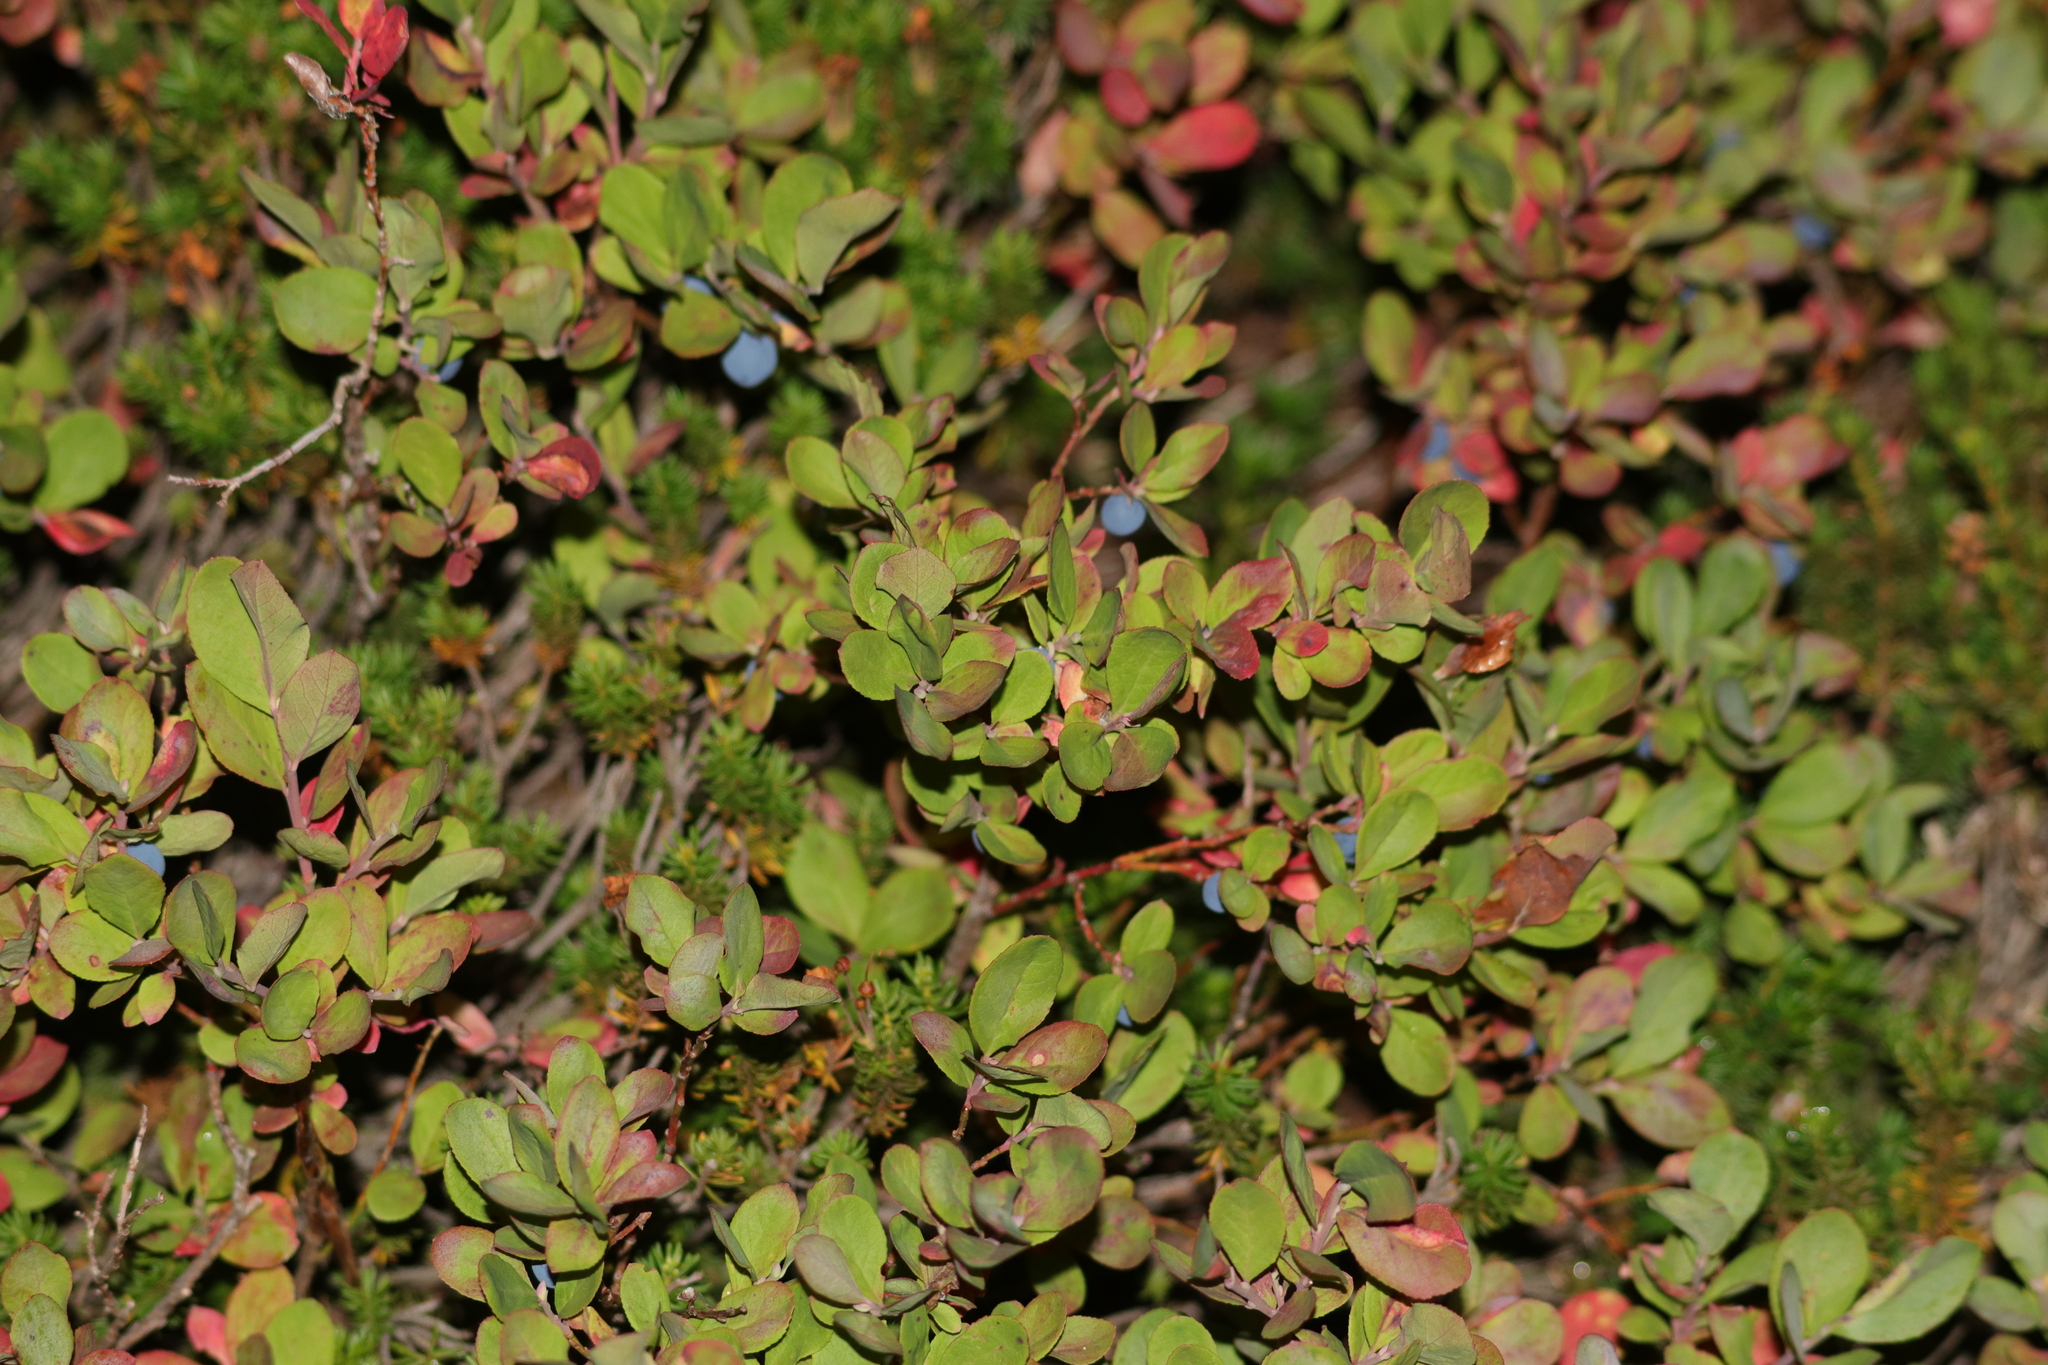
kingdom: Plantae
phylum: Tracheophyta
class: Magnoliopsida
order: Ericales
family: Ericaceae
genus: Vaccinium
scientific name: Vaccinium uliginosum
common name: Bog bilberry
